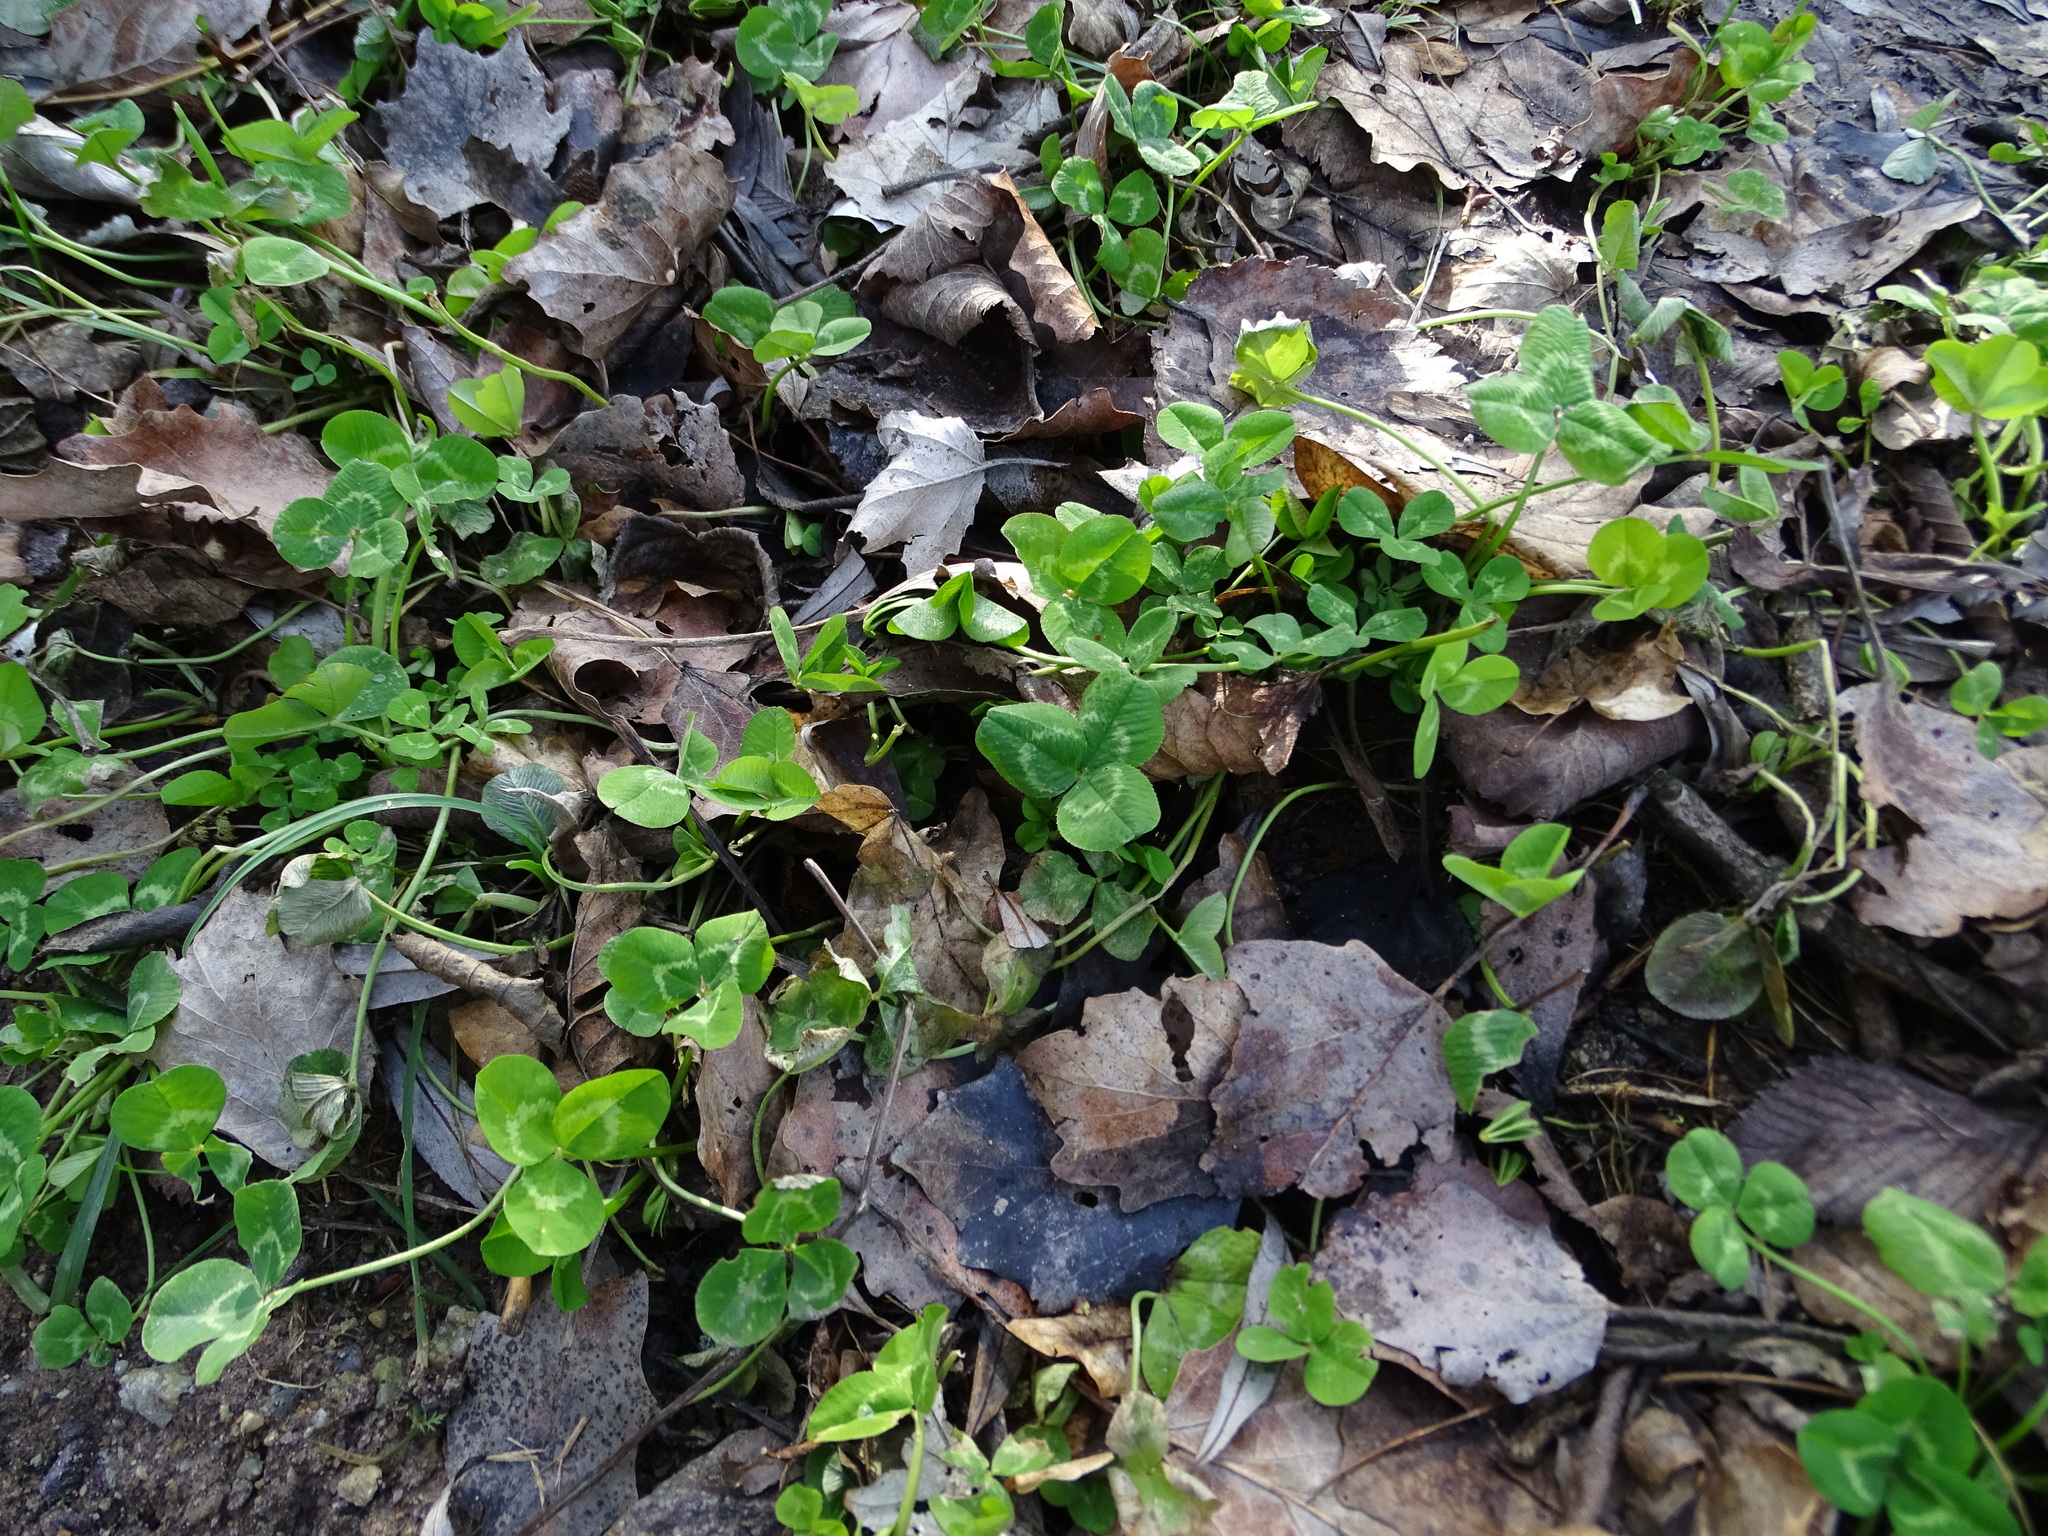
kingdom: Plantae
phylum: Tracheophyta
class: Magnoliopsida
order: Fabales
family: Fabaceae
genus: Trifolium
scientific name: Trifolium repens
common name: White clover
